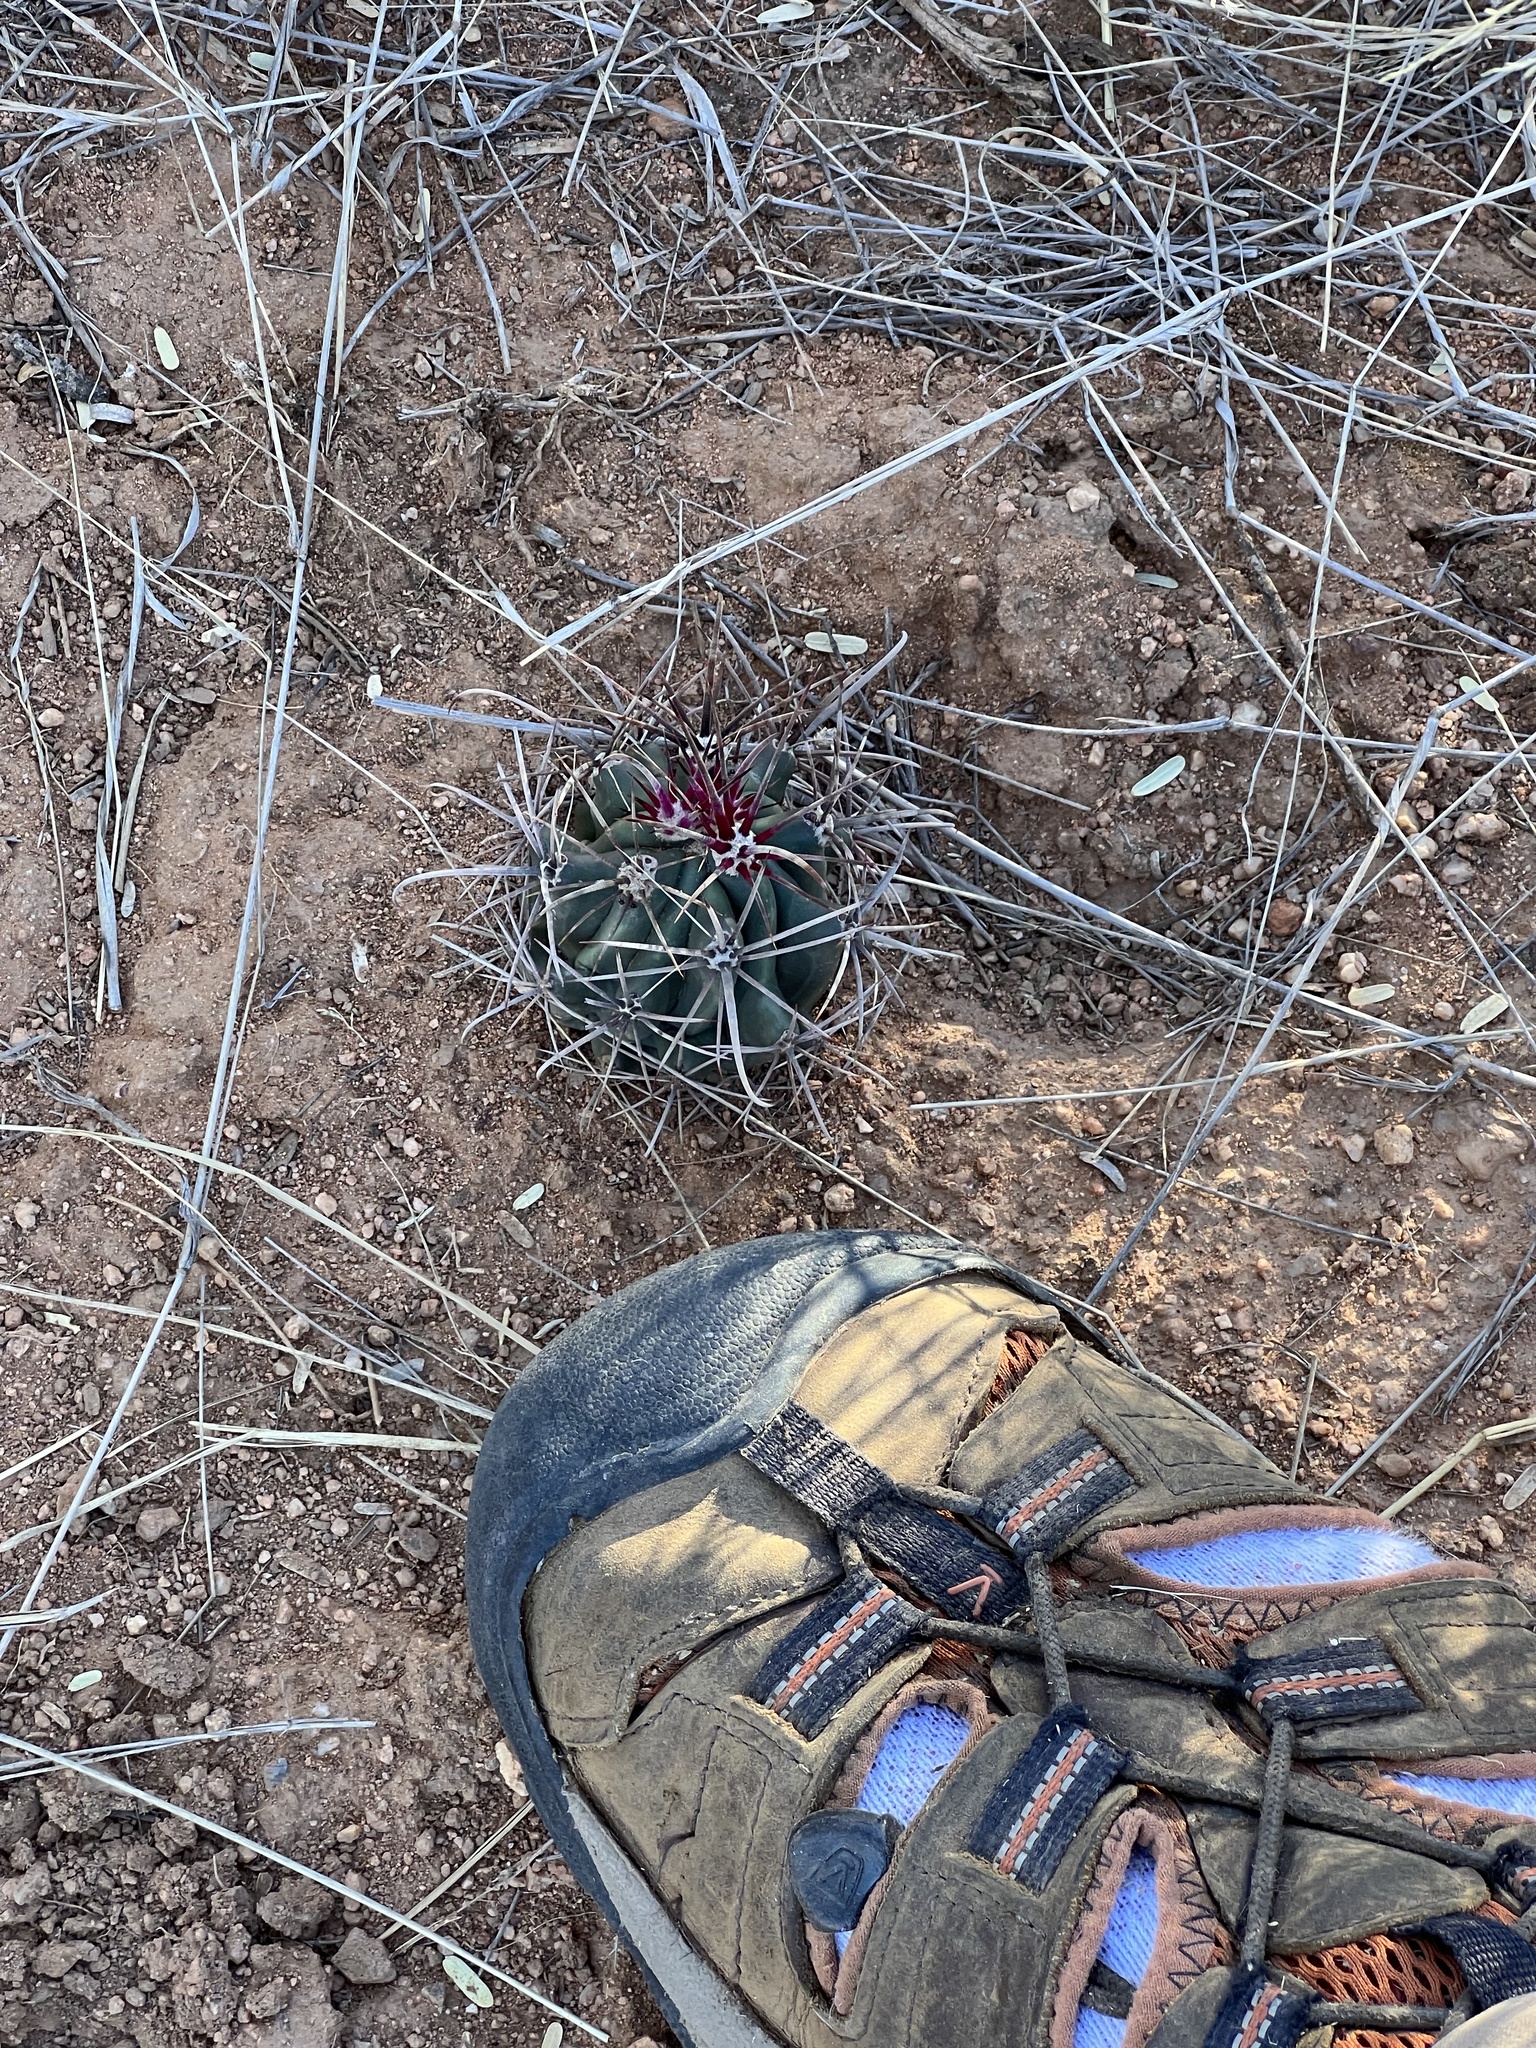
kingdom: Plantae
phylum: Tracheophyta
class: Magnoliopsida
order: Caryophyllales
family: Cactaceae
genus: Ferocactus
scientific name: Ferocactus wislizeni
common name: Candy barrel cactus
